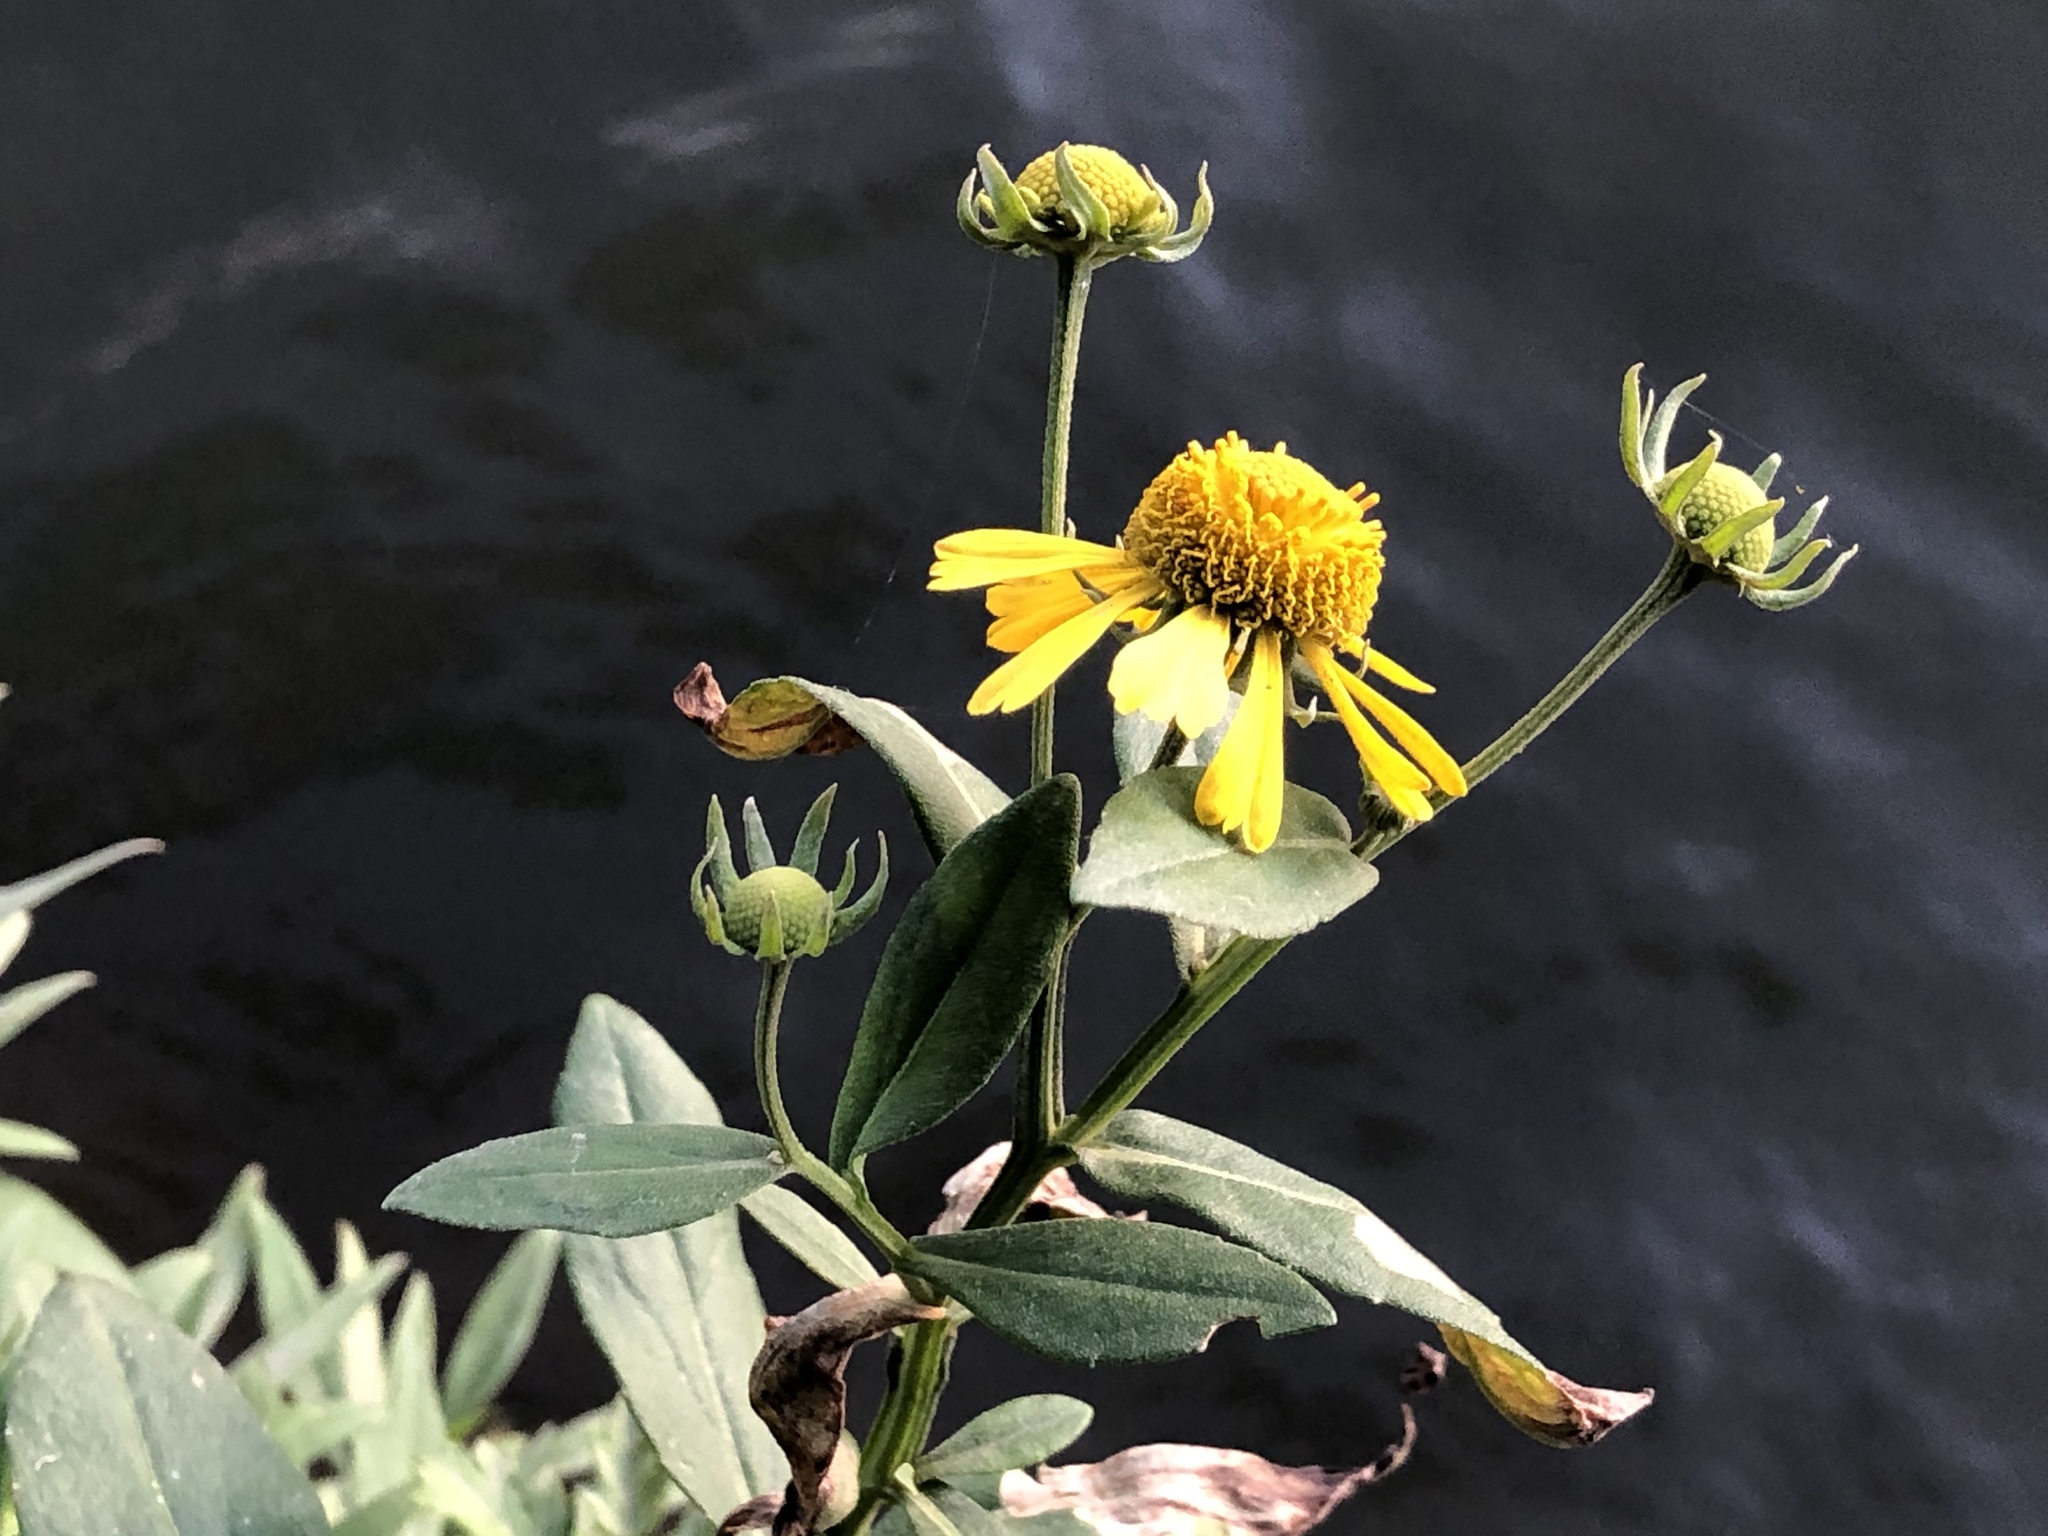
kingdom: Plantae
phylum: Tracheophyta
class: Magnoliopsida
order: Asterales
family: Asteraceae
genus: Helenium
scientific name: Helenium autumnale
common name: Sneezeweed
